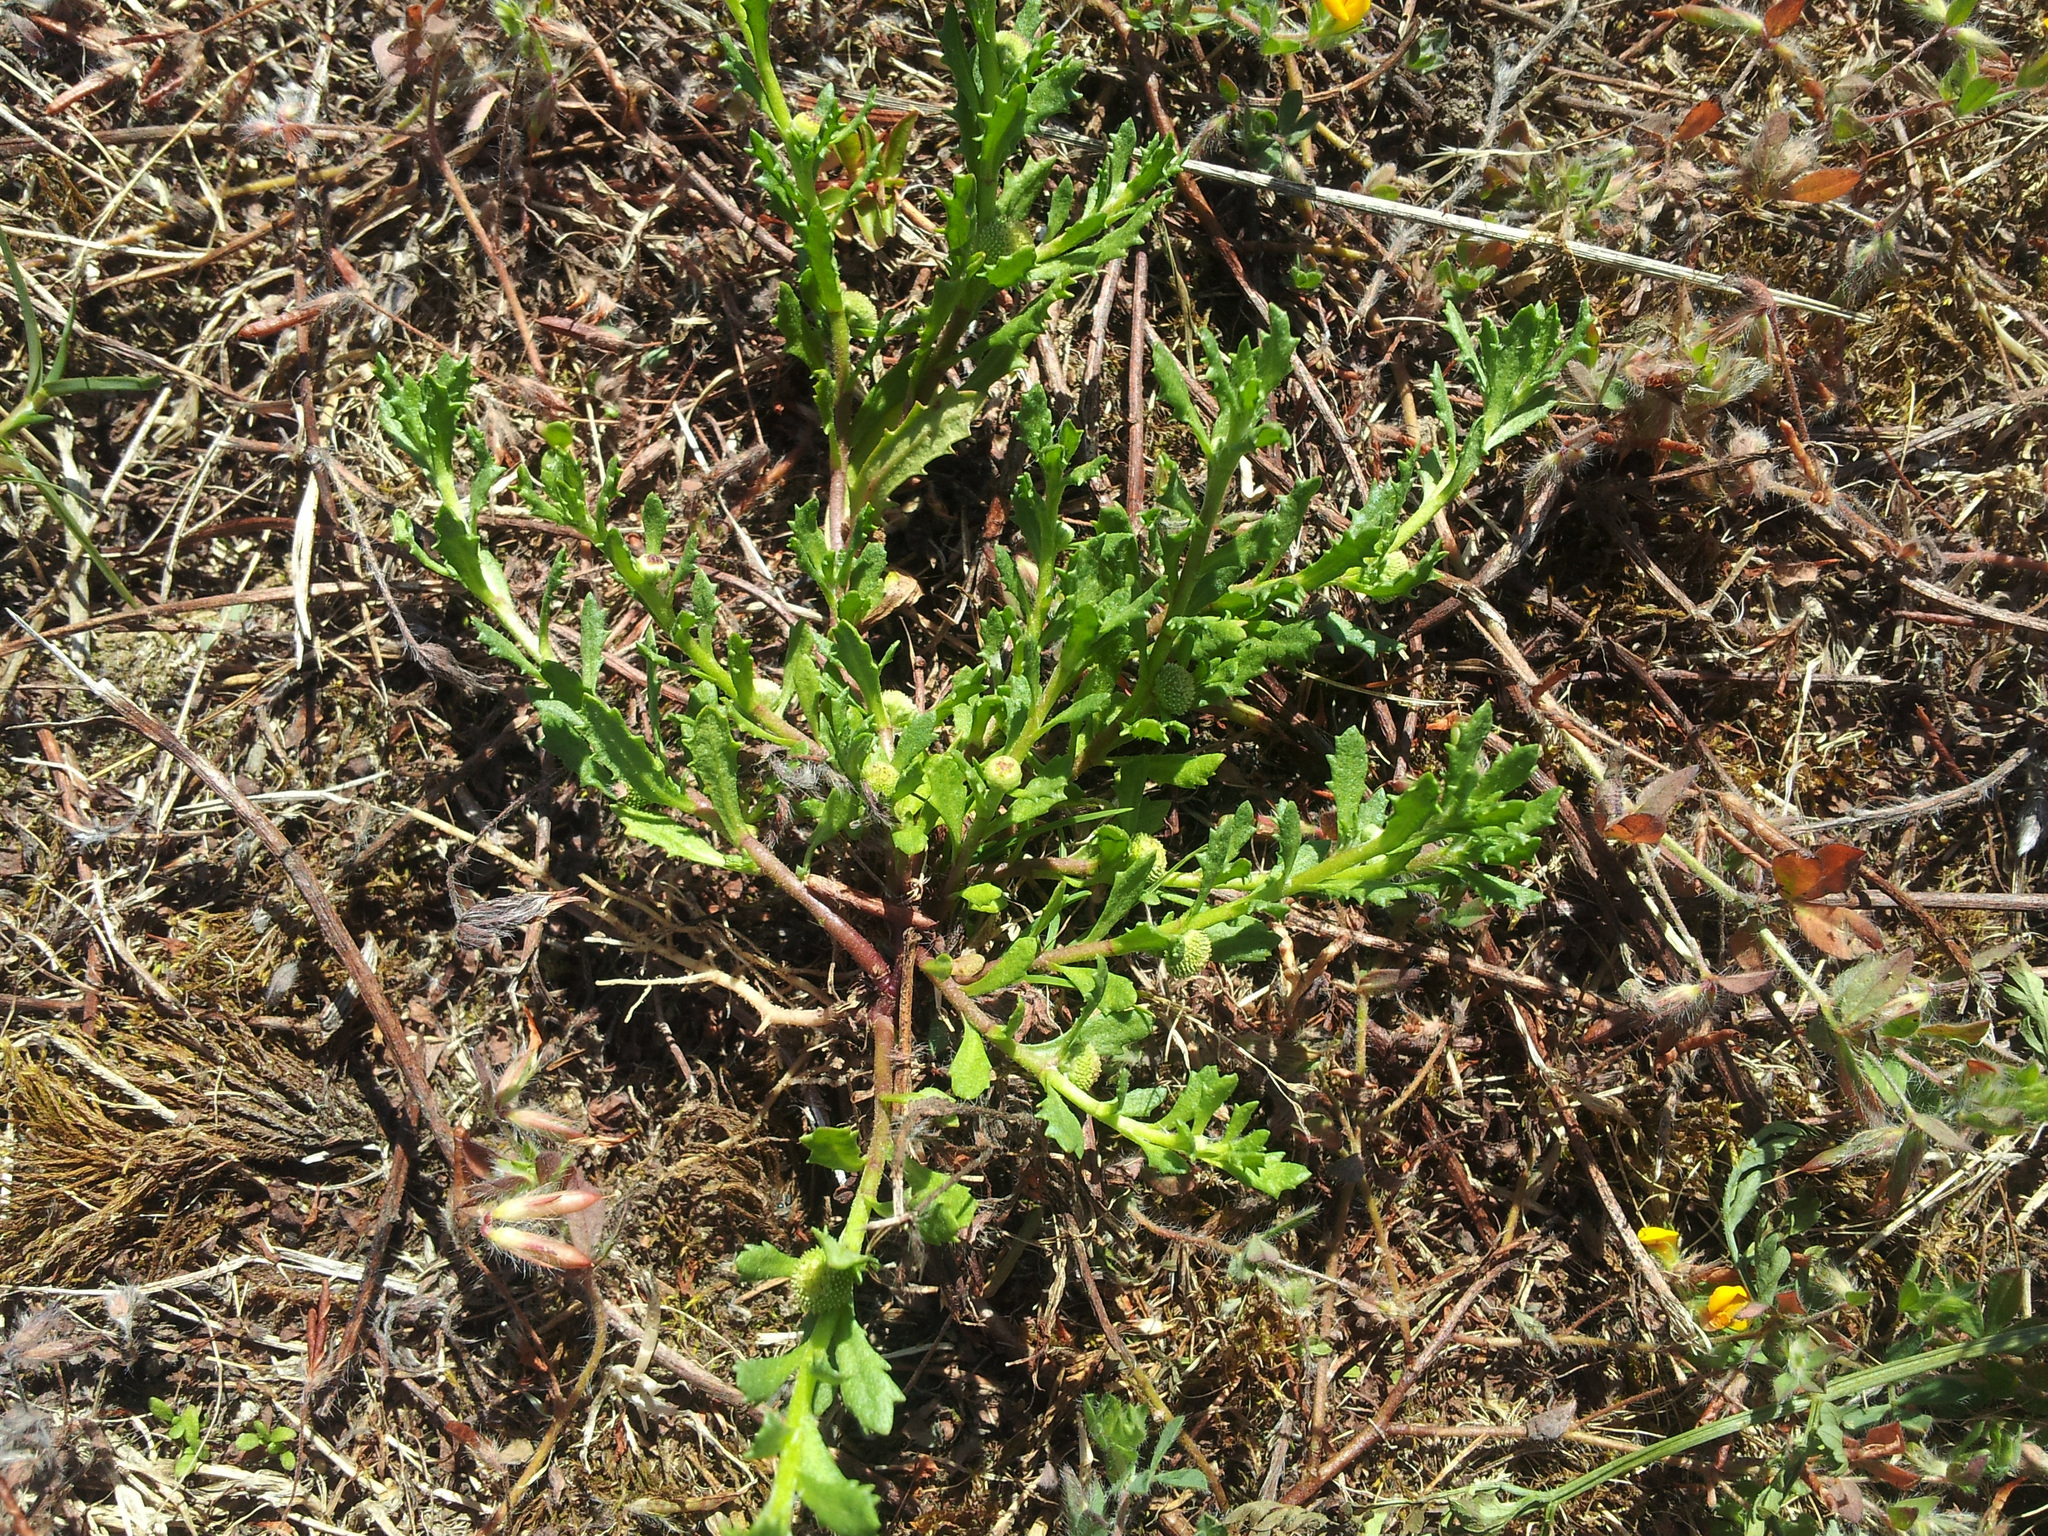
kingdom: Plantae
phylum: Tracheophyta
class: Magnoliopsida
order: Asterales
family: Asteraceae
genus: Centipeda
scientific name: Centipeda cunninghamii
